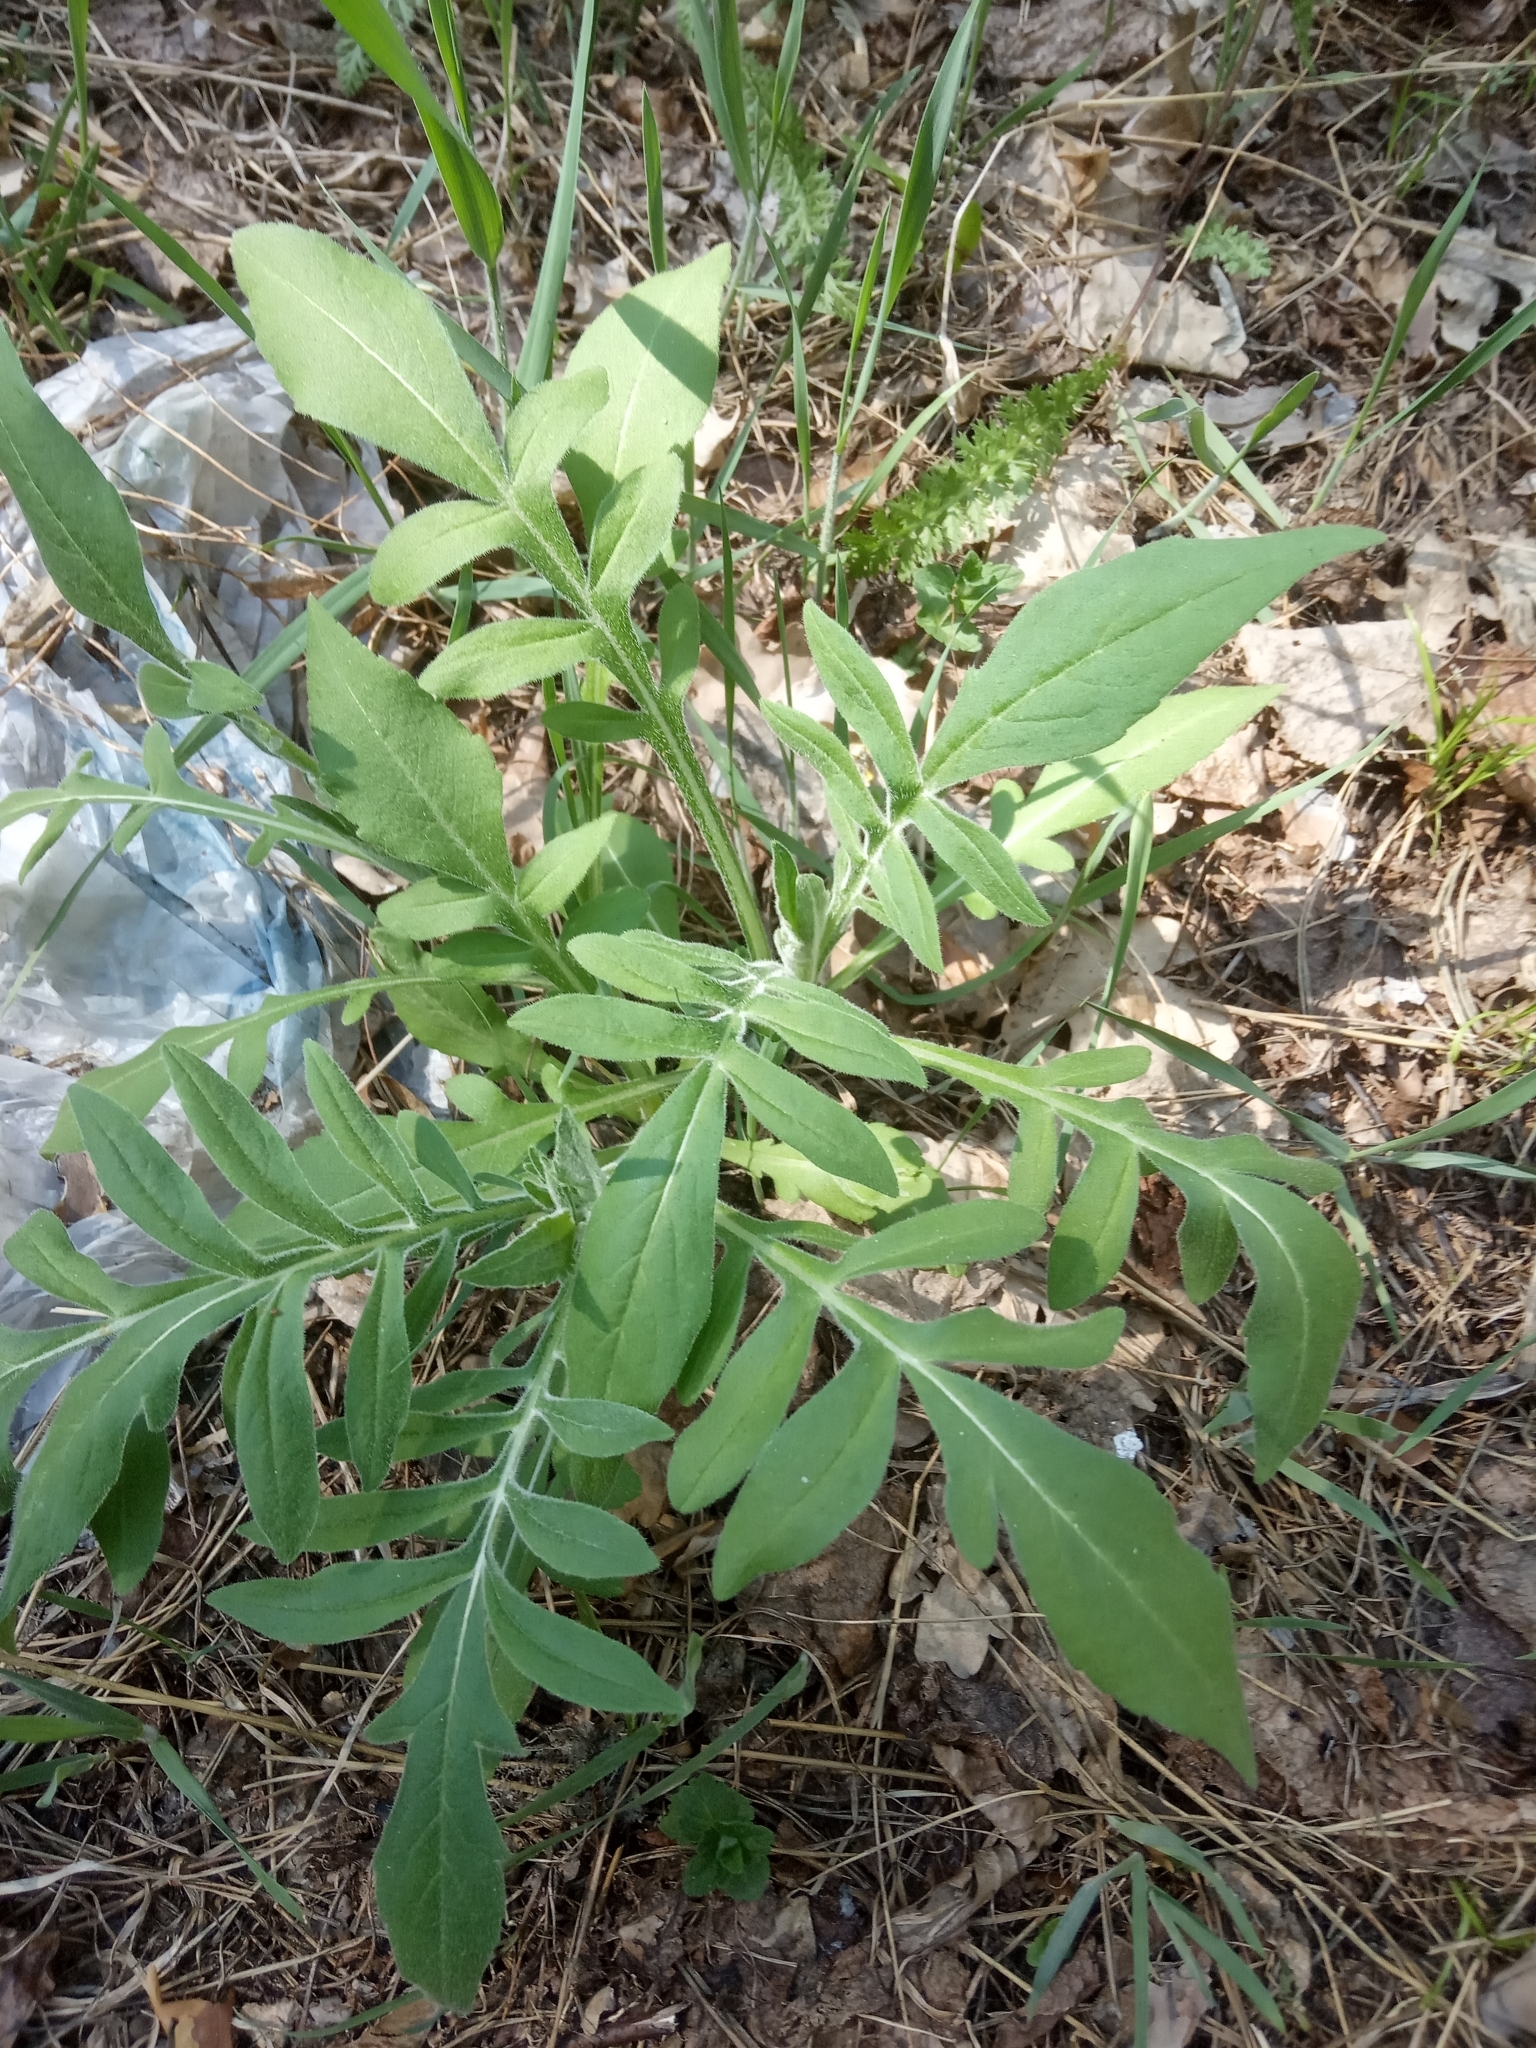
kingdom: Plantae
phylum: Tracheophyta
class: Magnoliopsida
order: Dipsacales
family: Caprifoliaceae
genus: Knautia
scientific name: Knautia arvensis
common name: Field scabiosa
